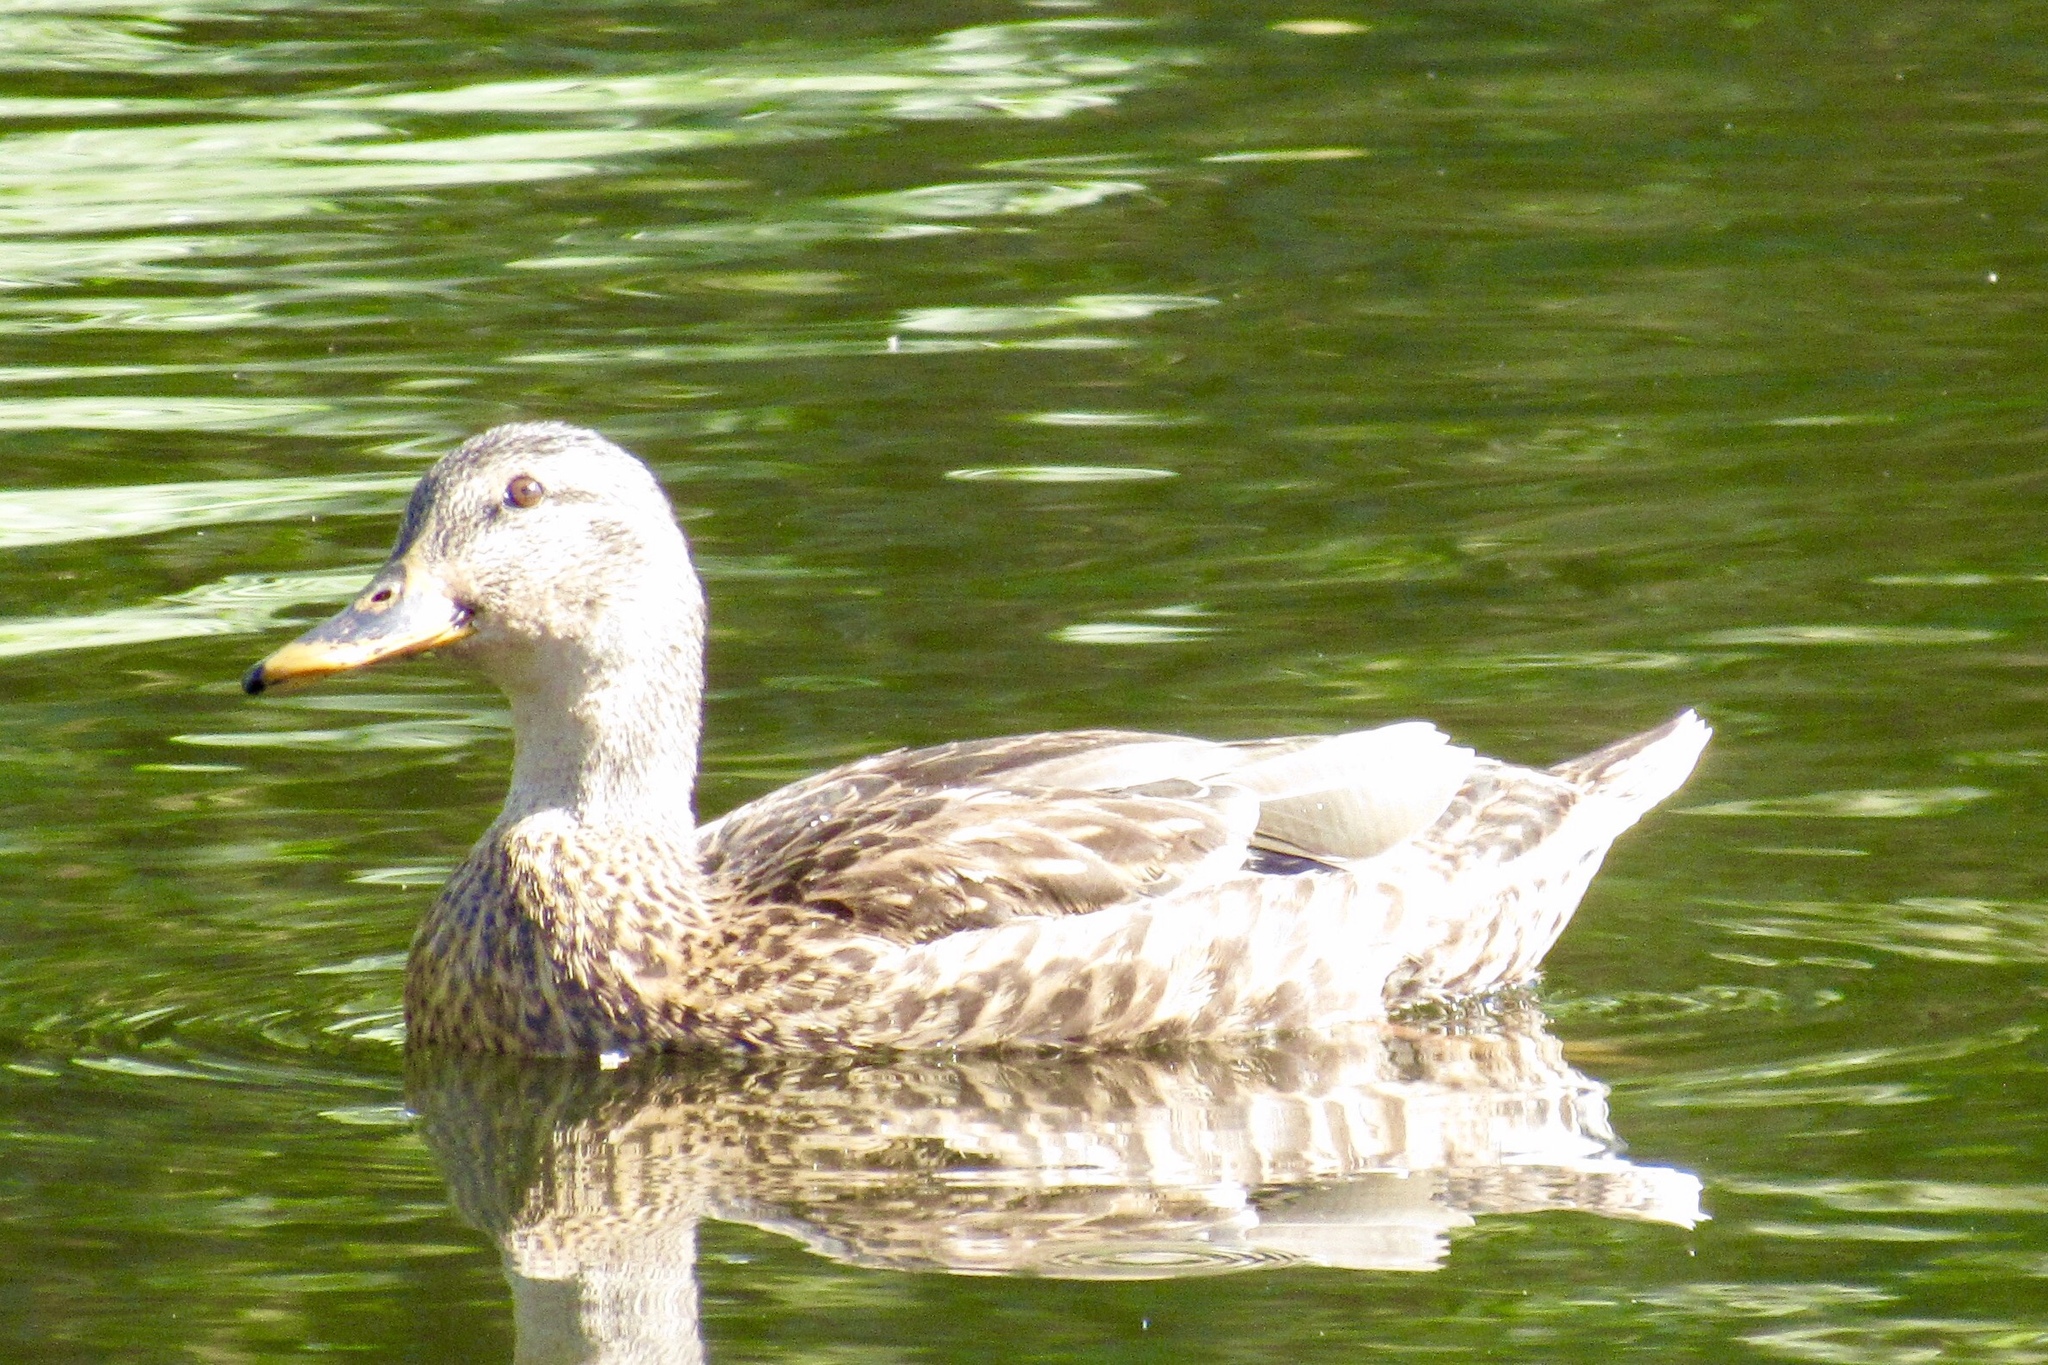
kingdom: Animalia
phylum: Chordata
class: Aves
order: Anseriformes
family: Anatidae
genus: Anas
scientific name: Anas platyrhynchos
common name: Mallard
